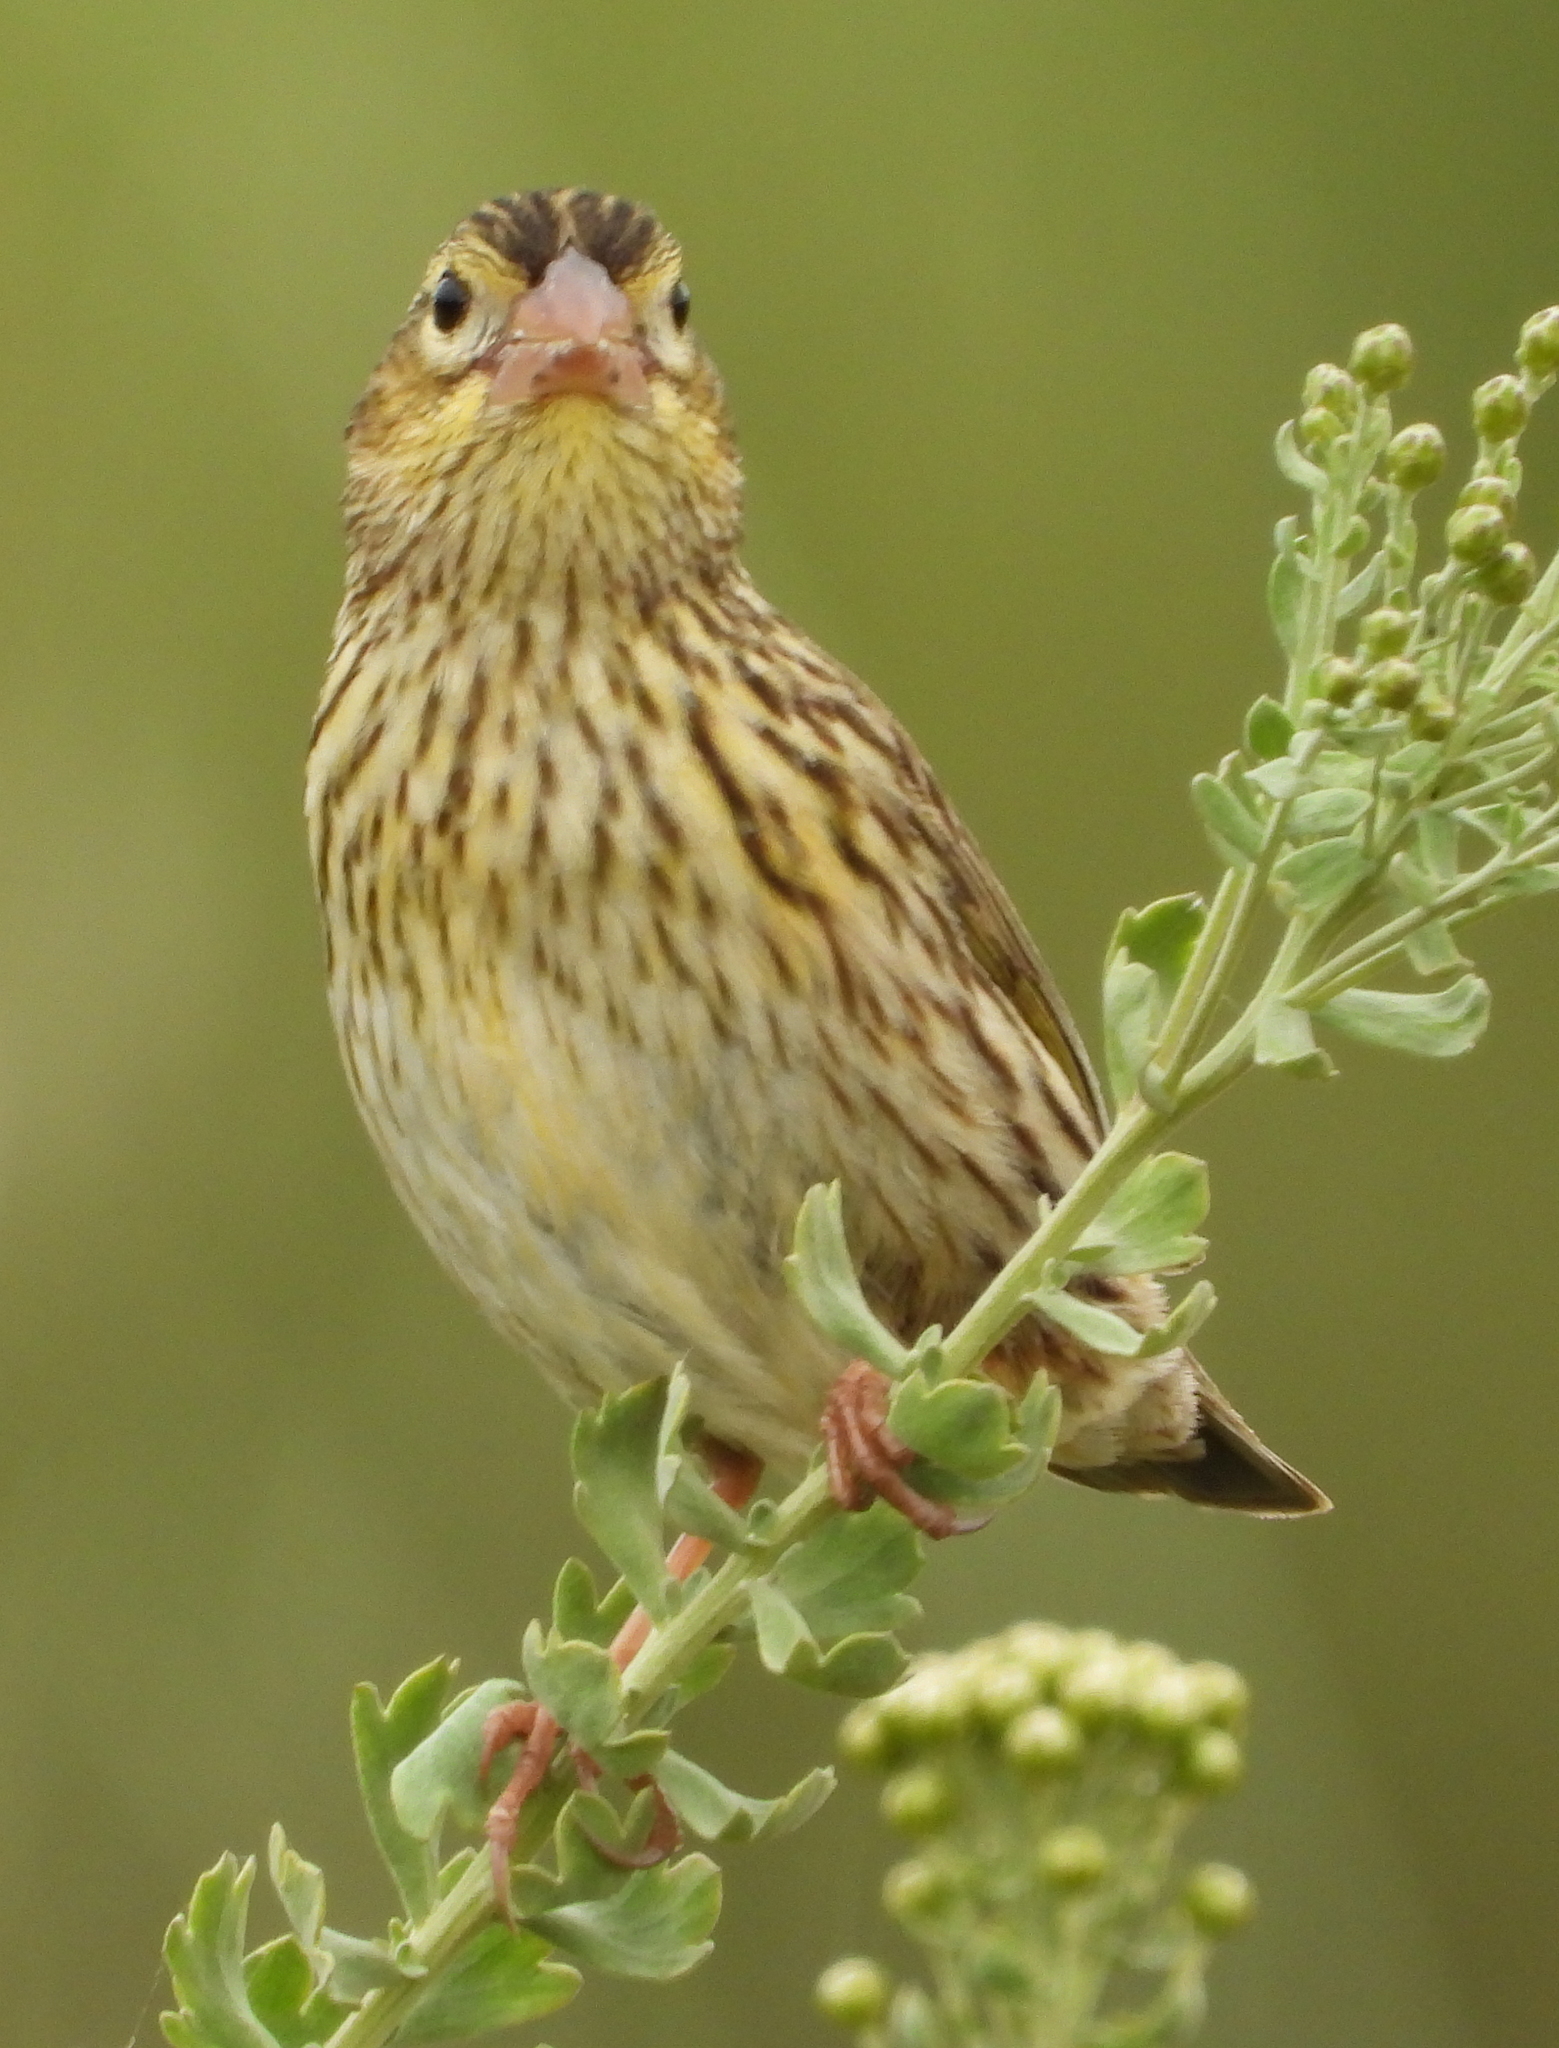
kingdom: Animalia
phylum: Chordata
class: Aves
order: Passeriformes
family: Ploceidae
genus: Euplectes
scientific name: Euplectes capensis
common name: Yellow bishop
